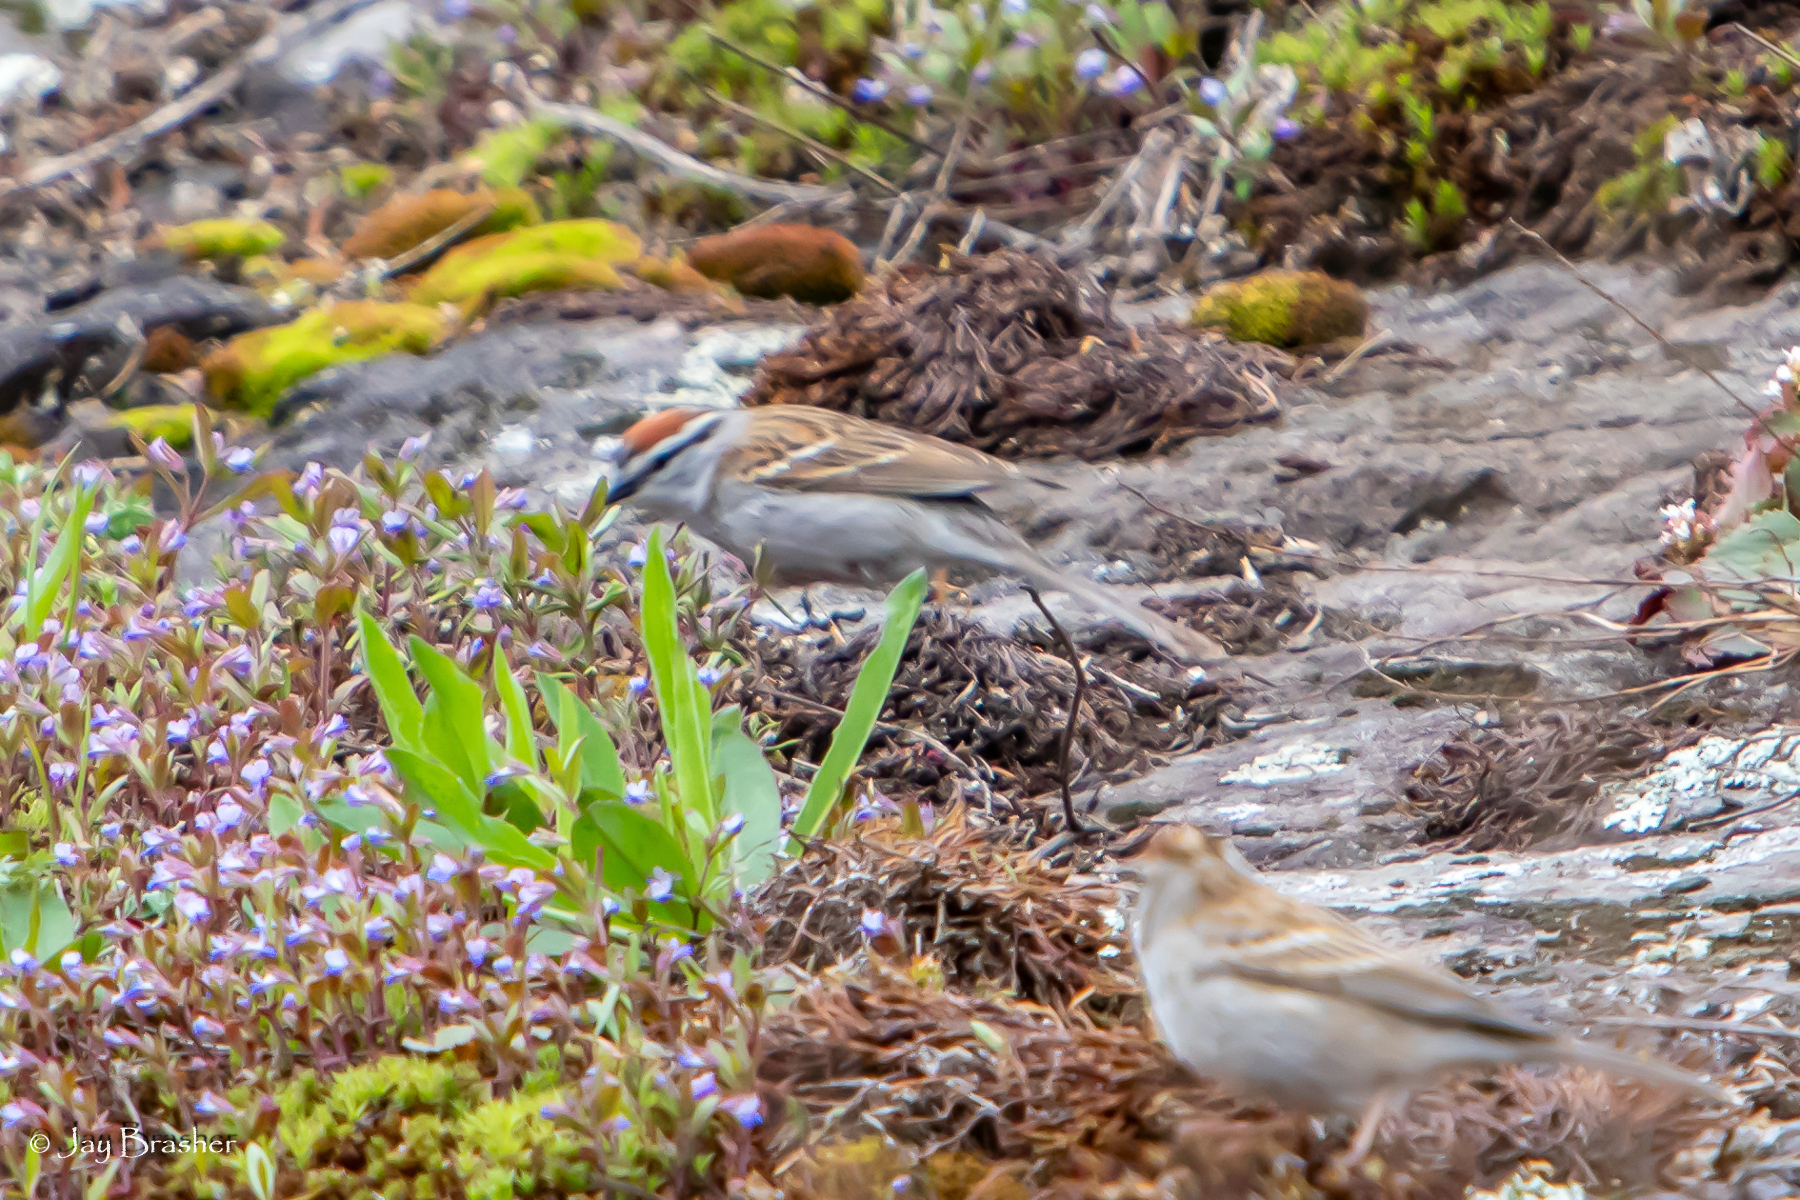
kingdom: Animalia
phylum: Chordata
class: Aves
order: Passeriformes
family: Passerellidae
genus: Spizella
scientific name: Spizella passerina
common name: Chipping sparrow
